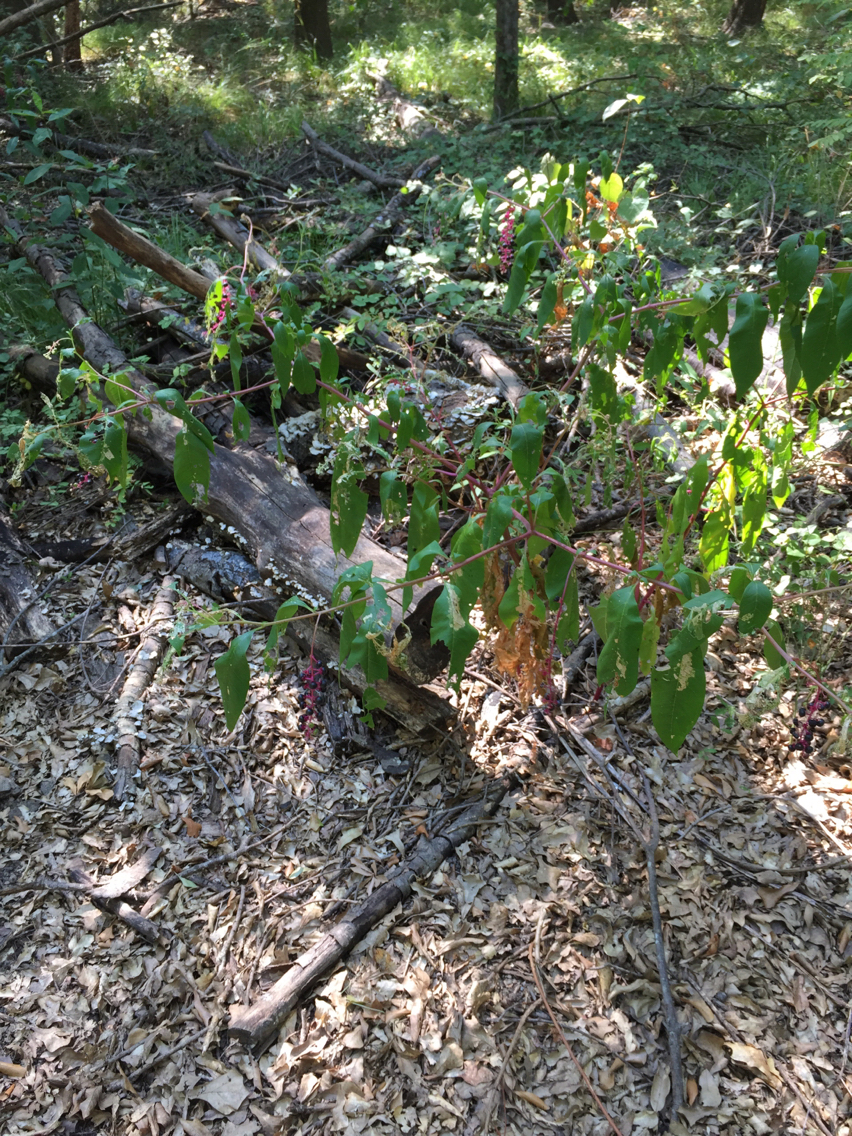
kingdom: Plantae
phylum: Tracheophyta
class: Magnoliopsida
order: Caryophyllales
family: Phytolaccaceae
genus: Phytolacca
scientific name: Phytolacca americana
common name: American pokeweed
